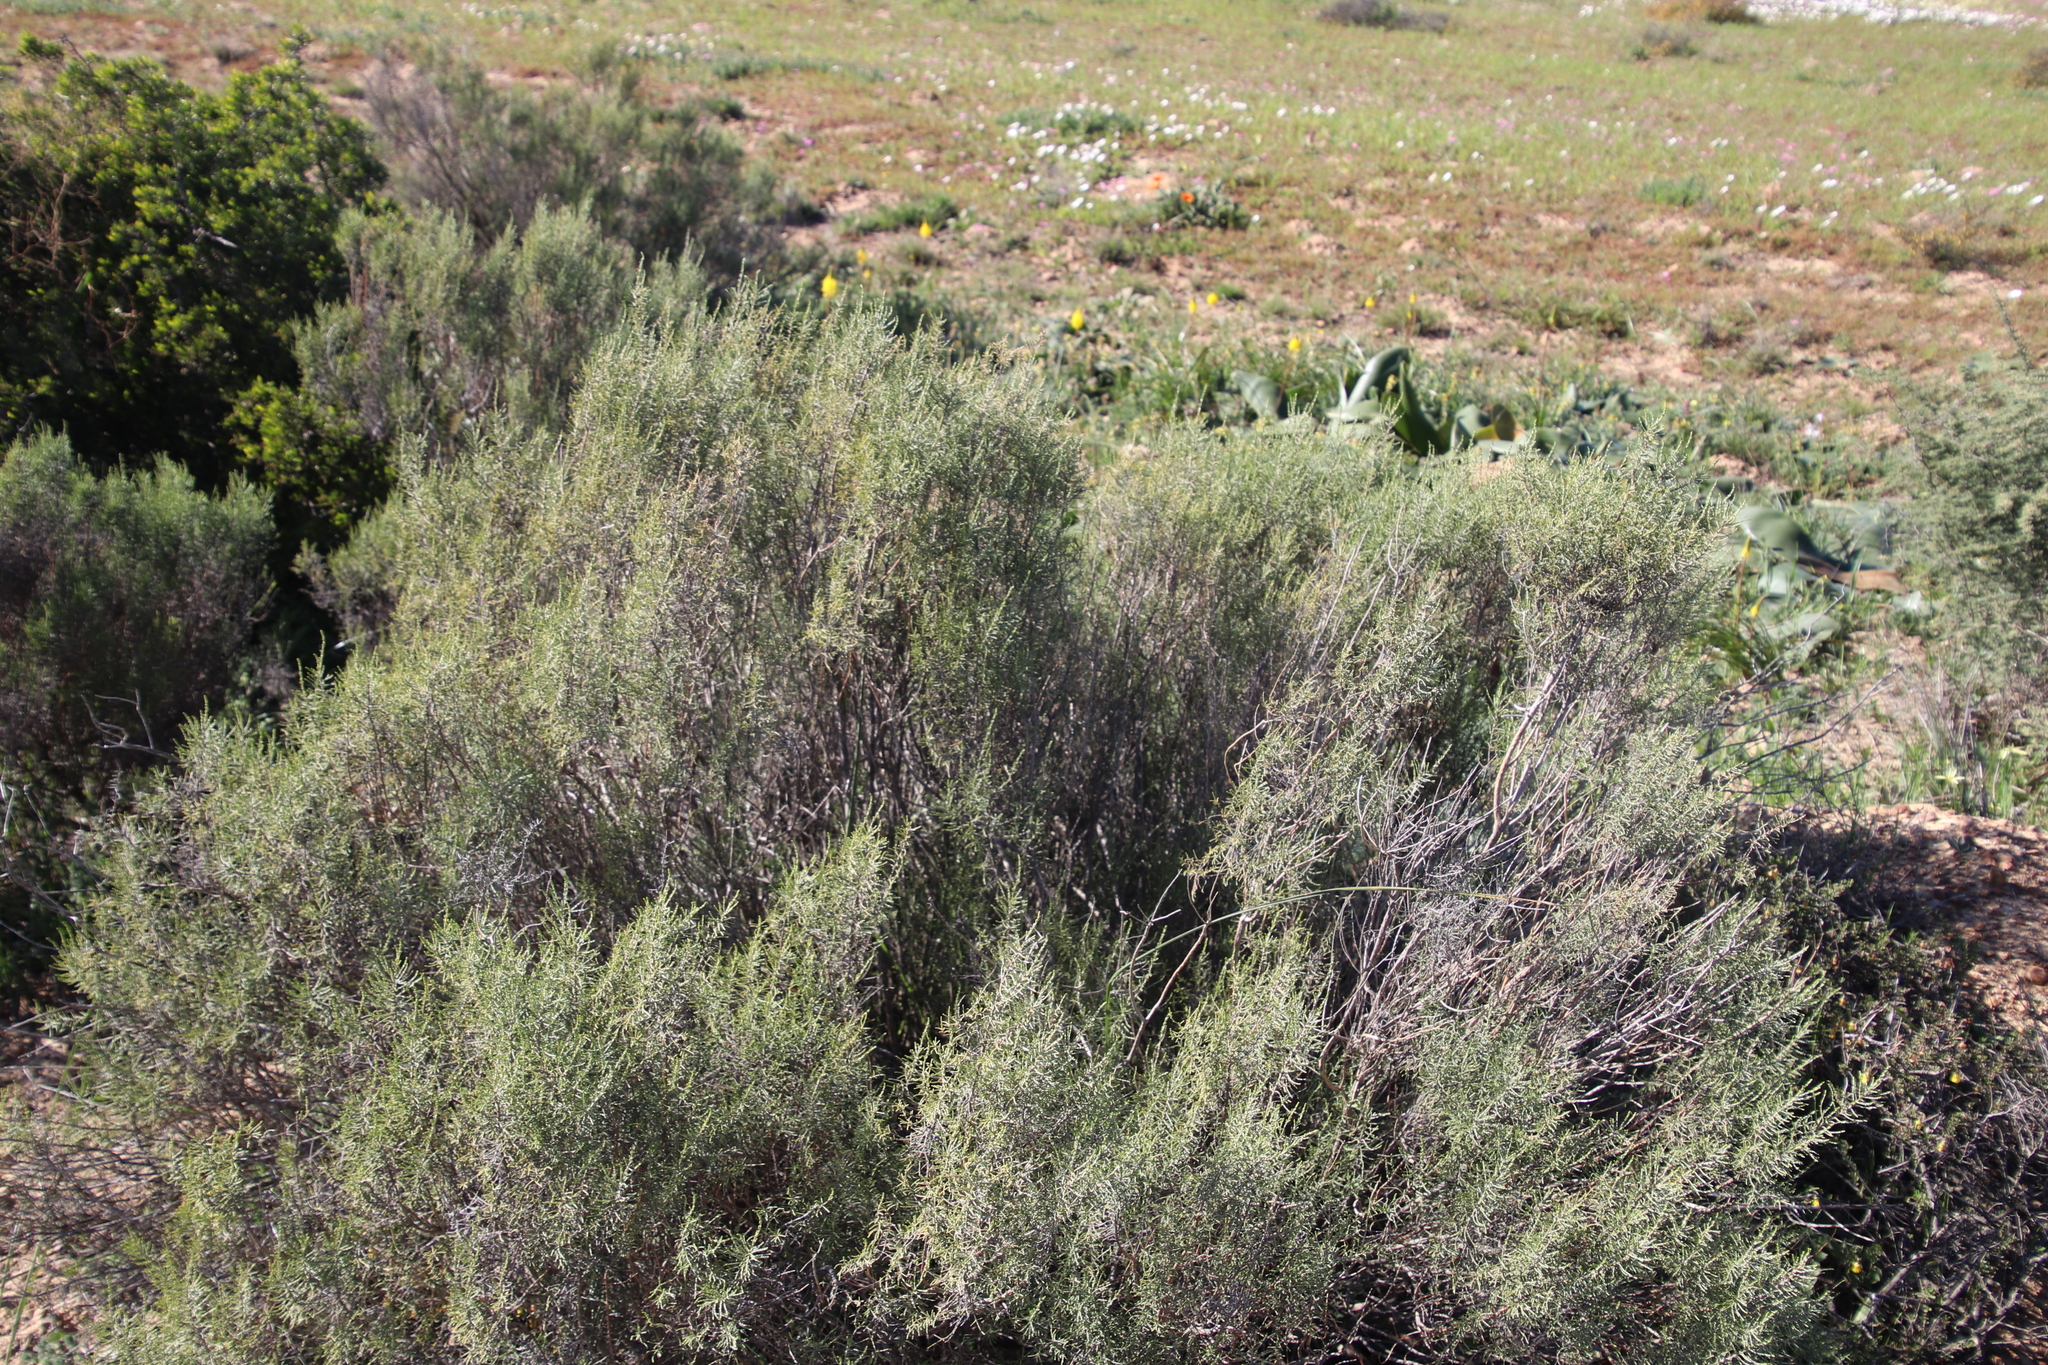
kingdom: Plantae
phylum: Tracheophyta
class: Magnoliopsida
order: Asterales
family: Asteraceae
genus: Dicerothamnus
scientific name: Dicerothamnus rhinocerotis
